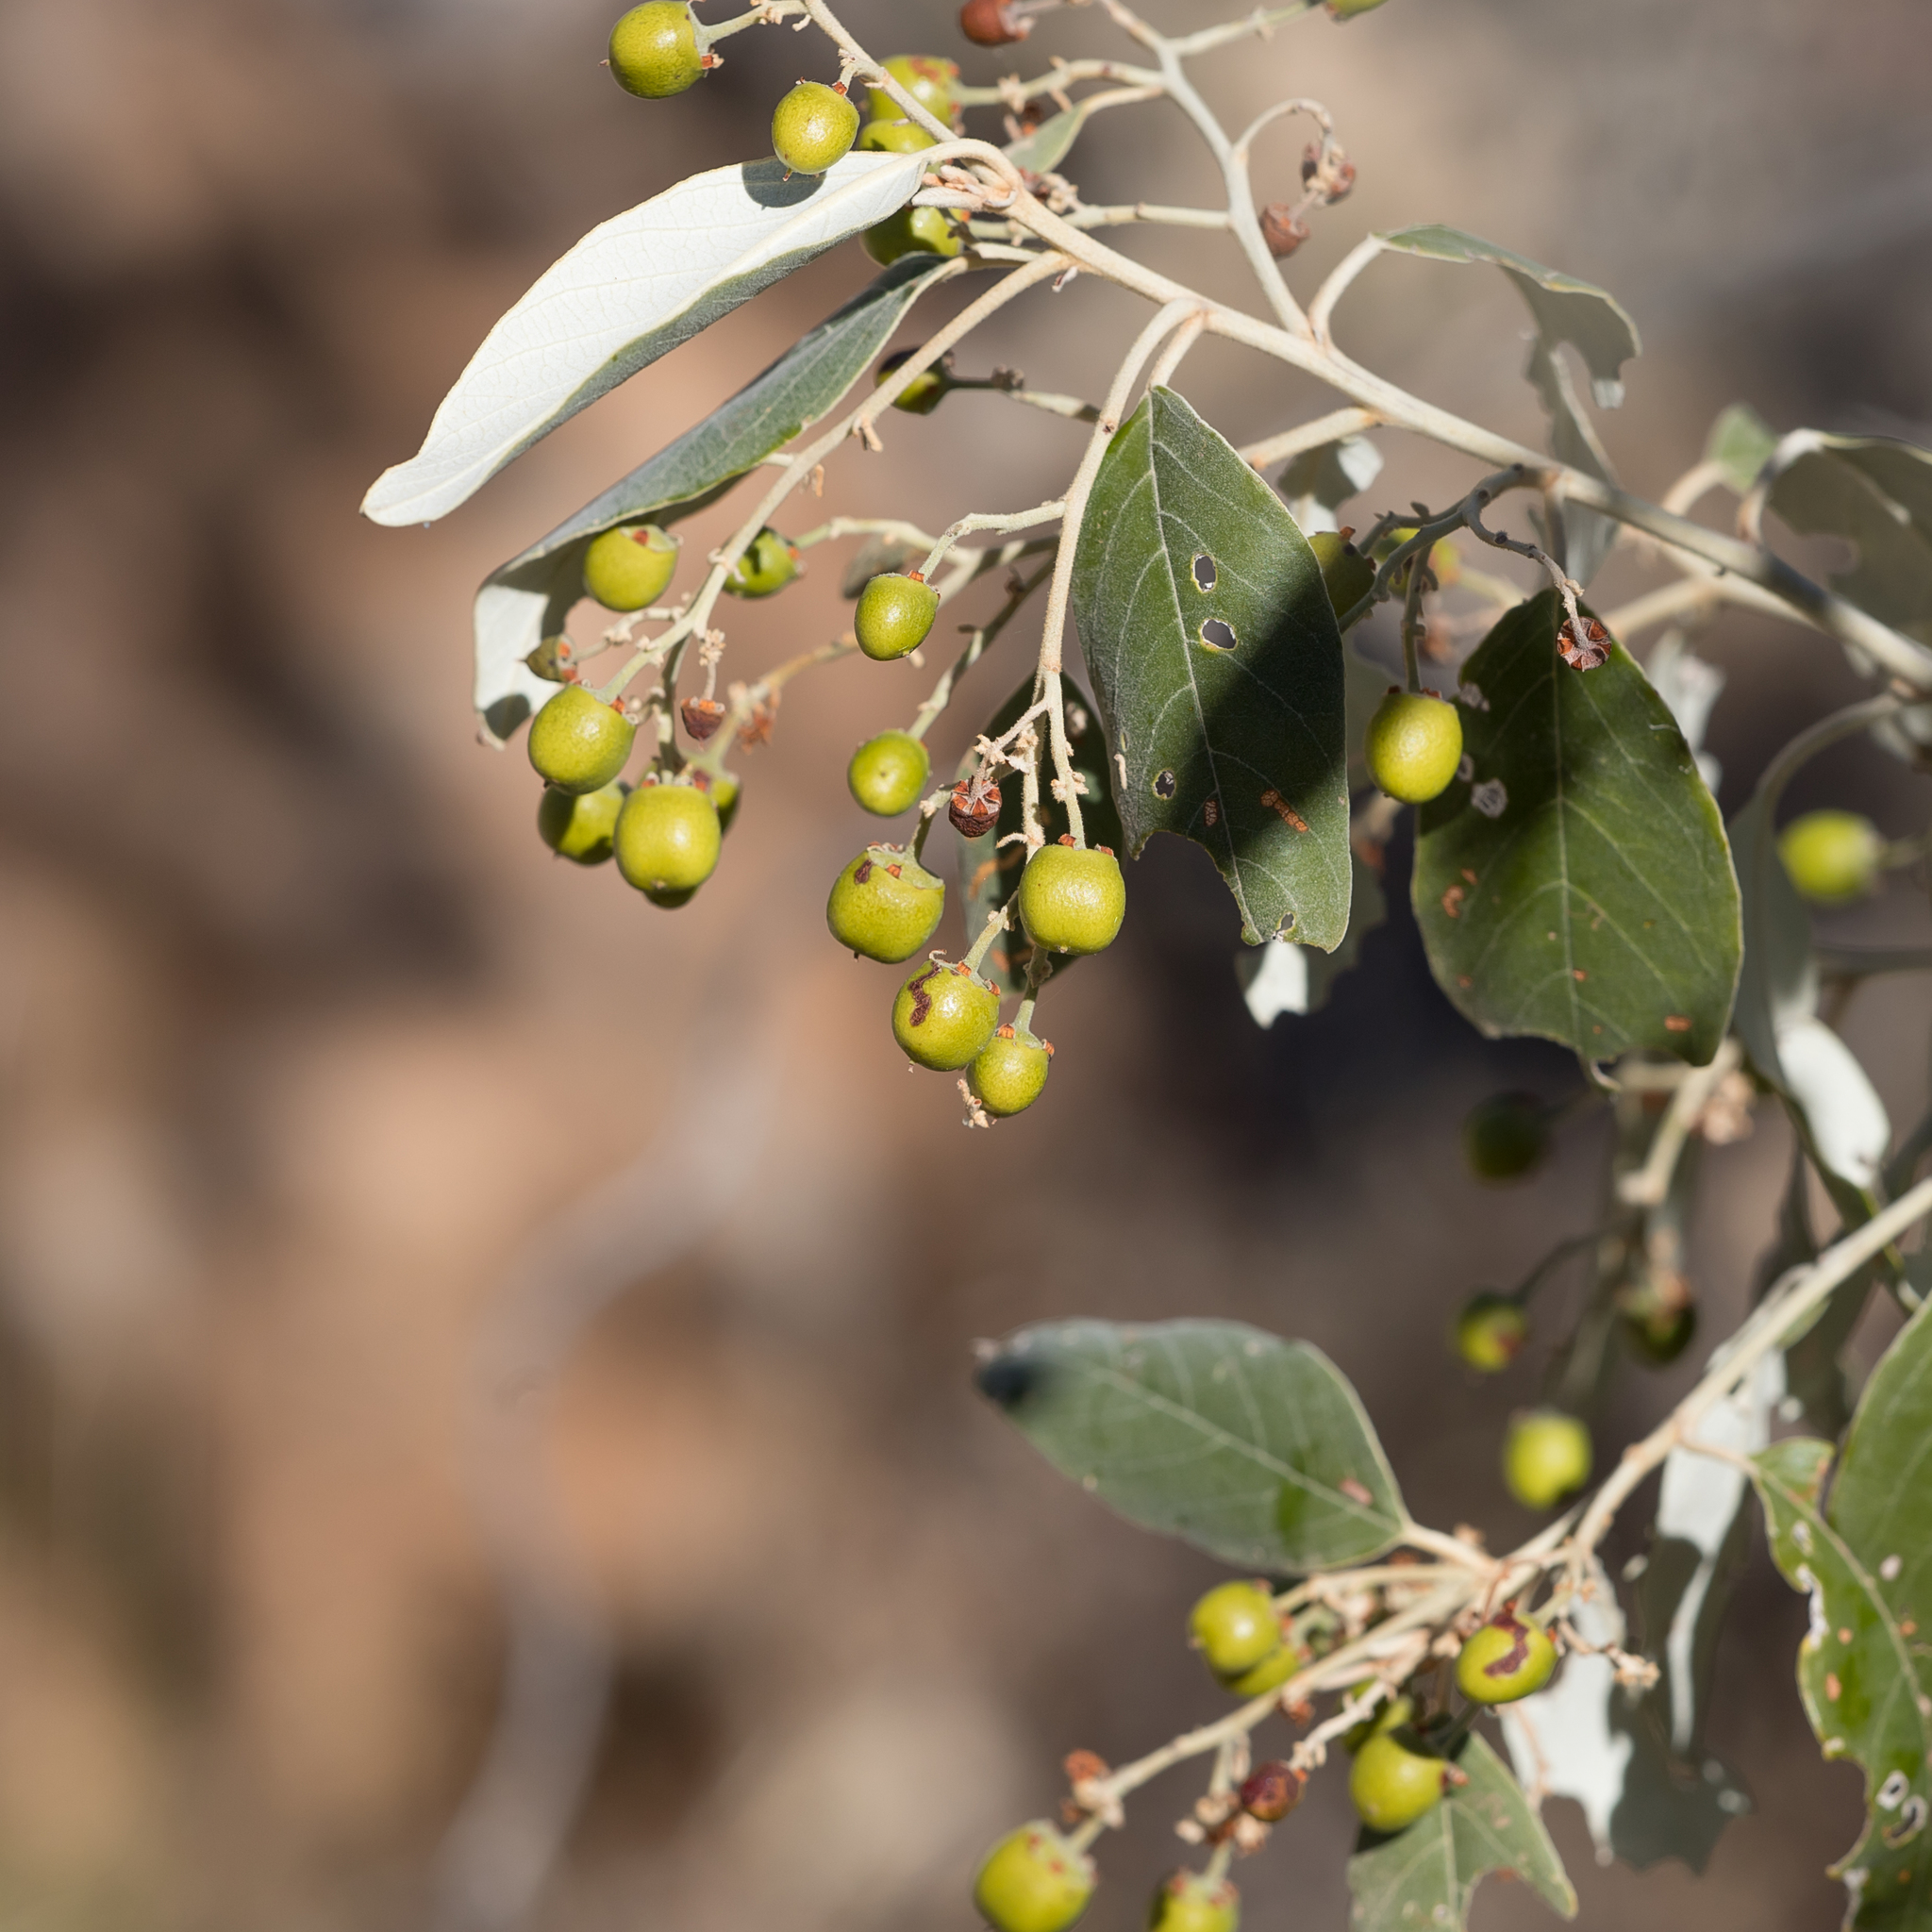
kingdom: Plantae
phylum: Tracheophyta
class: Magnoliopsida
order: Rosales
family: Rhamnaceae
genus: Alphitonia
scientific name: Alphitonia excelsa
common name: Red ash
